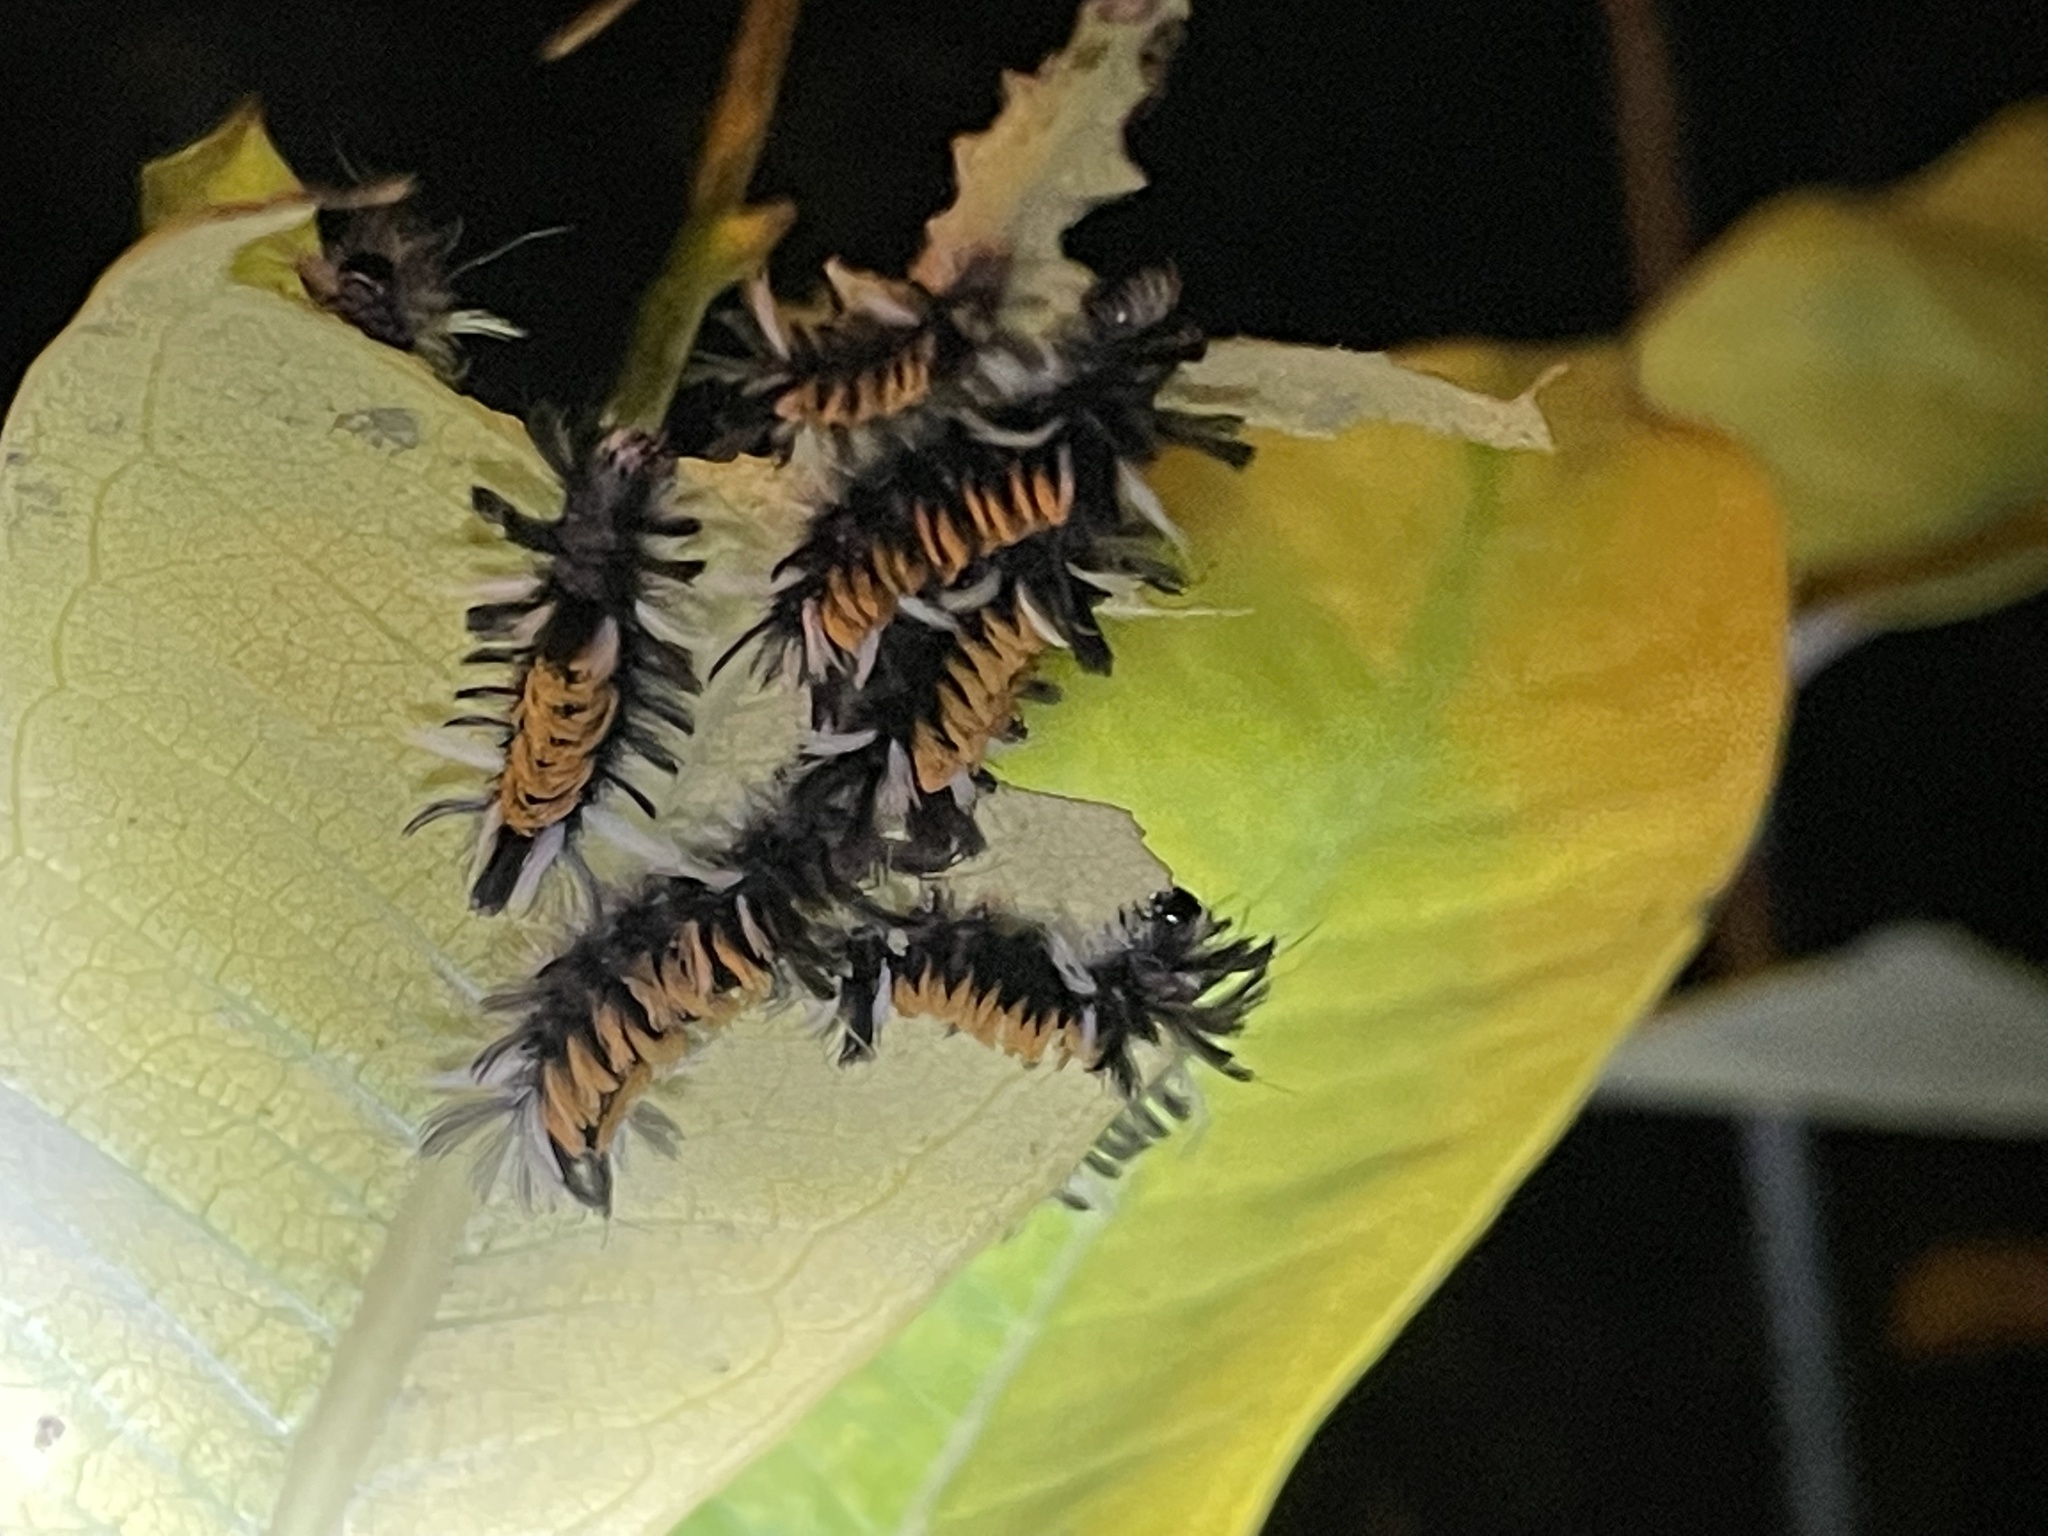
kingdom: Animalia
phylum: Arthropoda
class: Insecta
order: Lepidoptera
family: Erebidae
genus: Euchaetes
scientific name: Euchaetes egle
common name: Milkweed tussock moth
